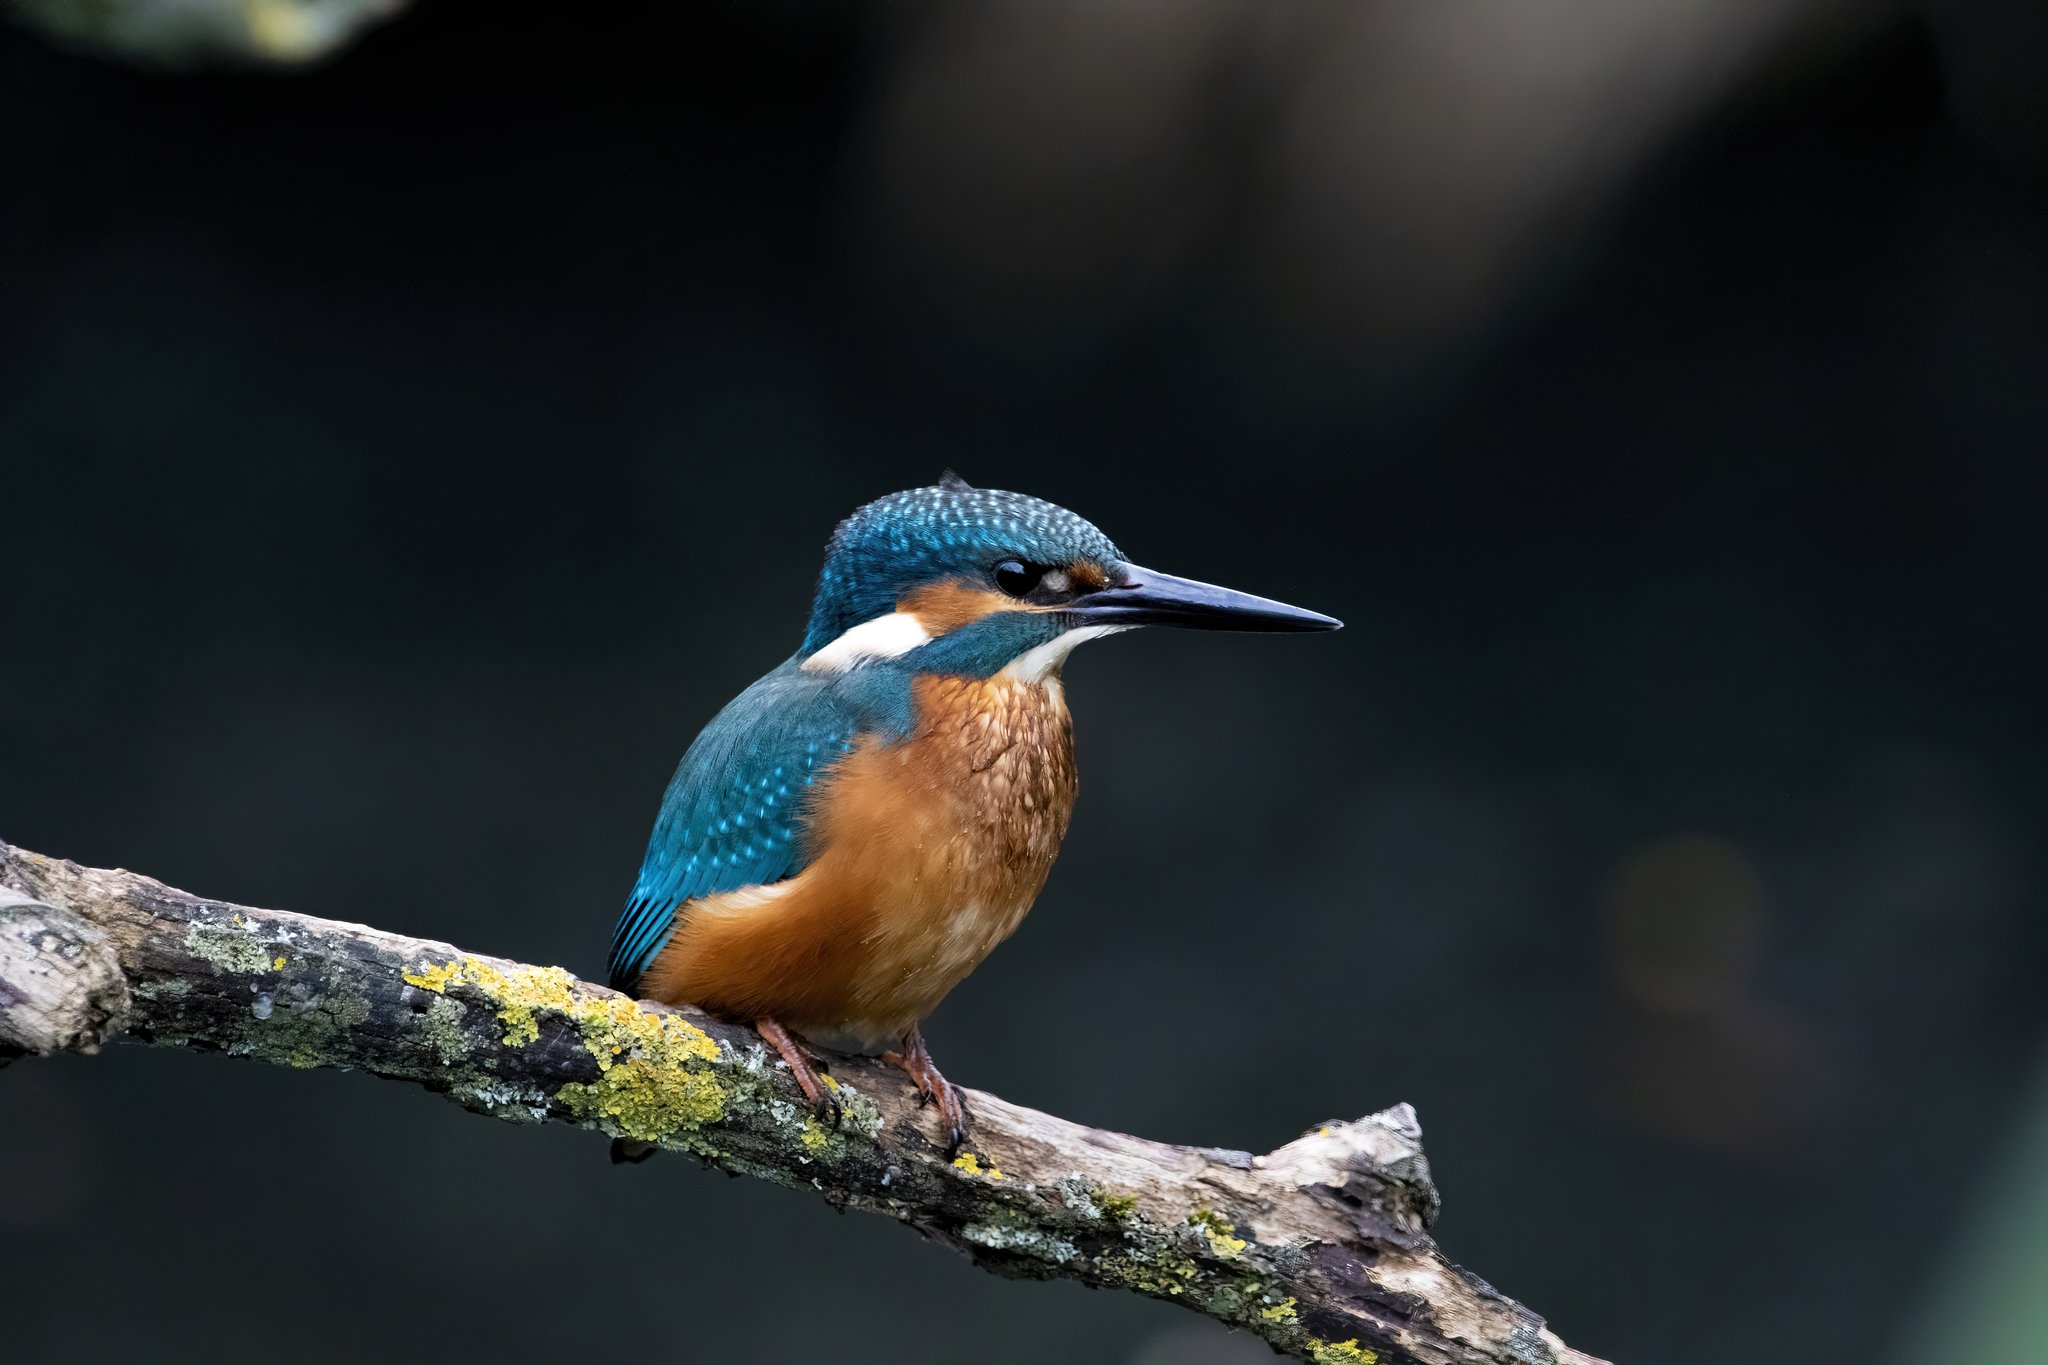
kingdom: Animalia
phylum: Chordata
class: Aves
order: Coraciiformes
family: Alcedinidae
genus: Alcedo
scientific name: Alcedo atthis
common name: Common kingfisher
